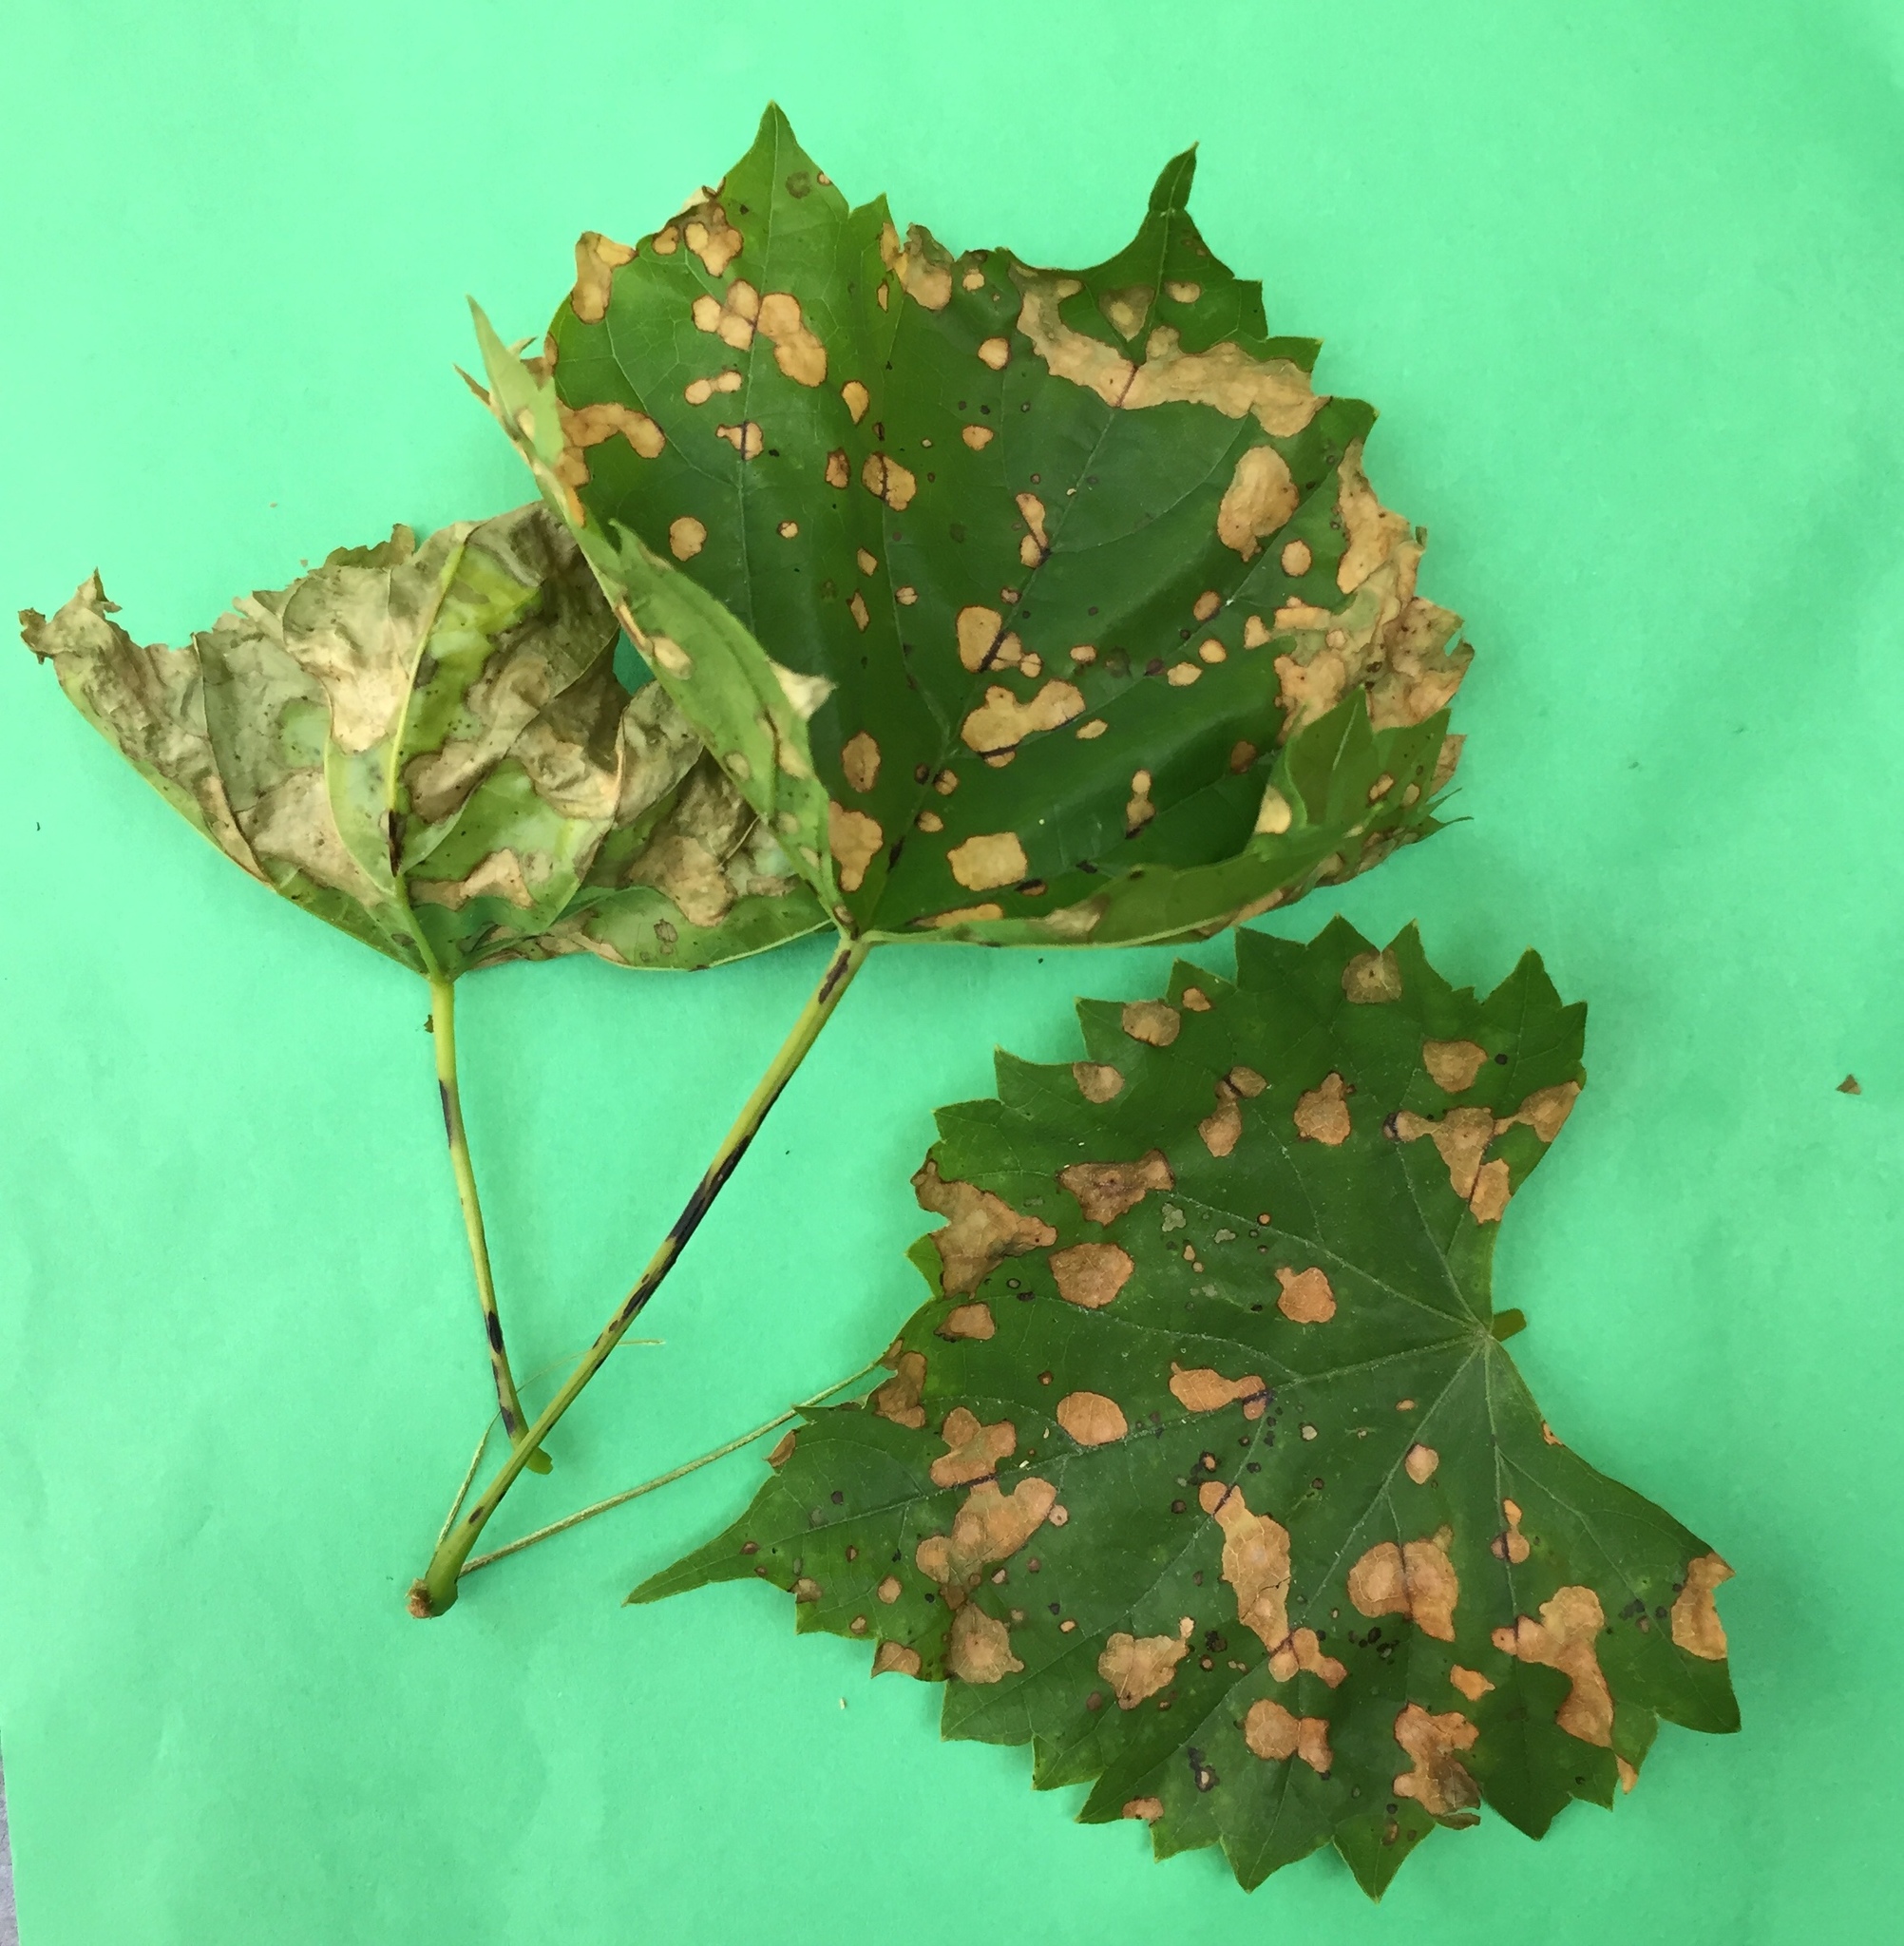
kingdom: Fungi
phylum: Ascomycota
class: Dothideomycetes
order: Botryosphaeriales
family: Phyllostictaceae
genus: Phyllosticta
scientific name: Phyllosticta ampelicida
